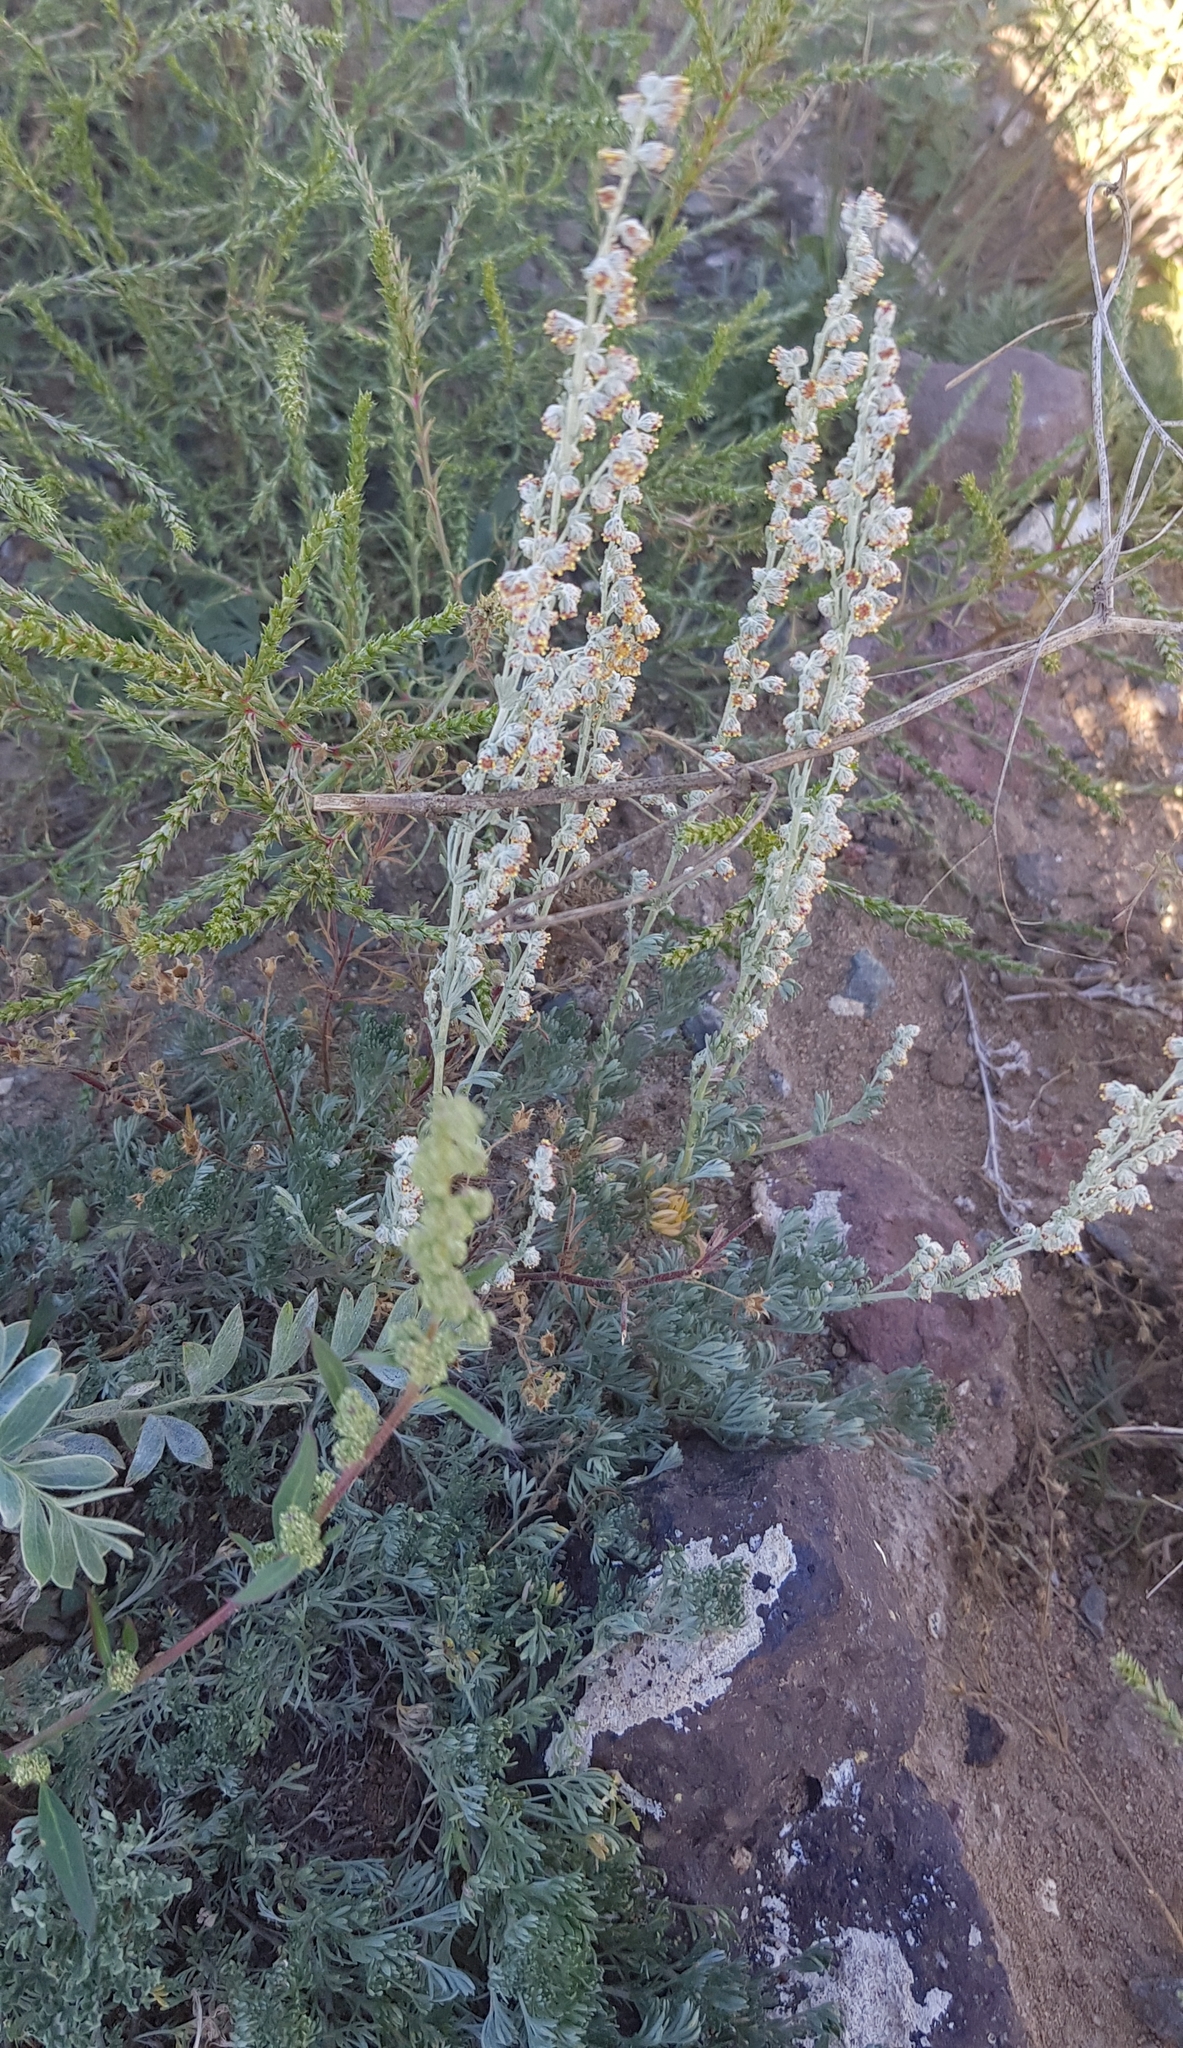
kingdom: Plantae
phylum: Tracheophyta
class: Magnoliopsida
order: Asterales
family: Asteraceae
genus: Artemisia
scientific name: Artemisia frigida
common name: Prairie sagewort
